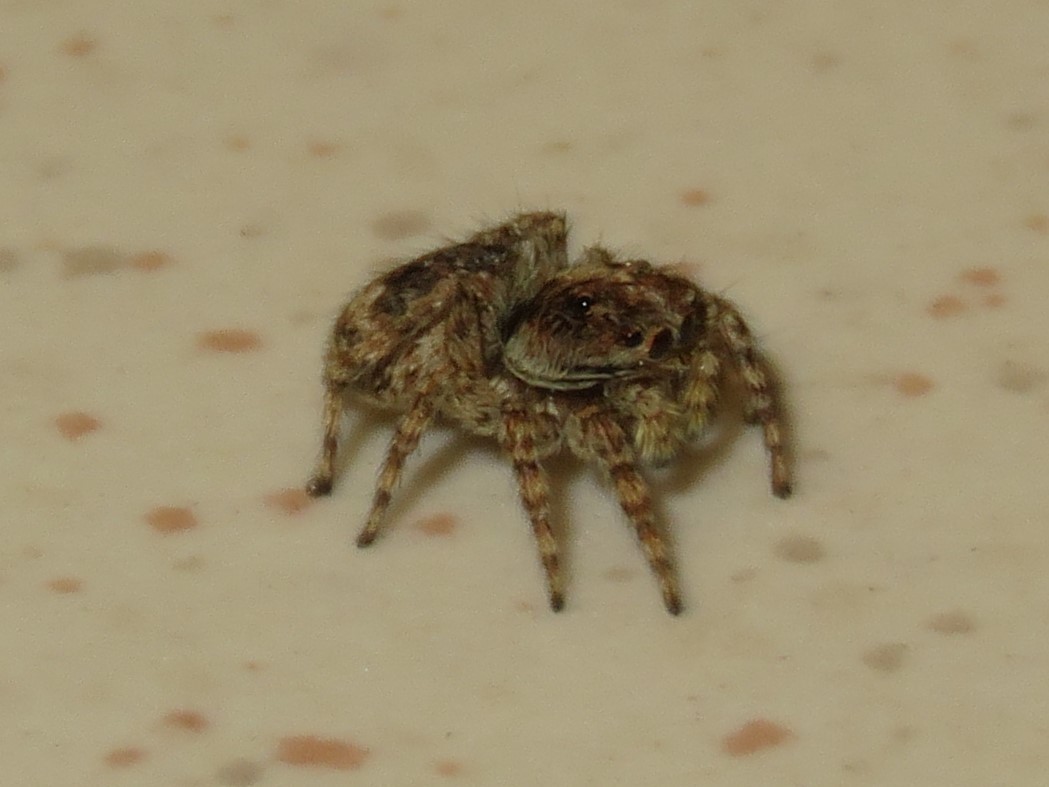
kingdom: Animalia
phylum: Arthropoda
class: Arachnida
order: Araneae
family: Salticidae
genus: Attulus
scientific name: Attulus fasciger
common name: Asiatic wall jumping spider
